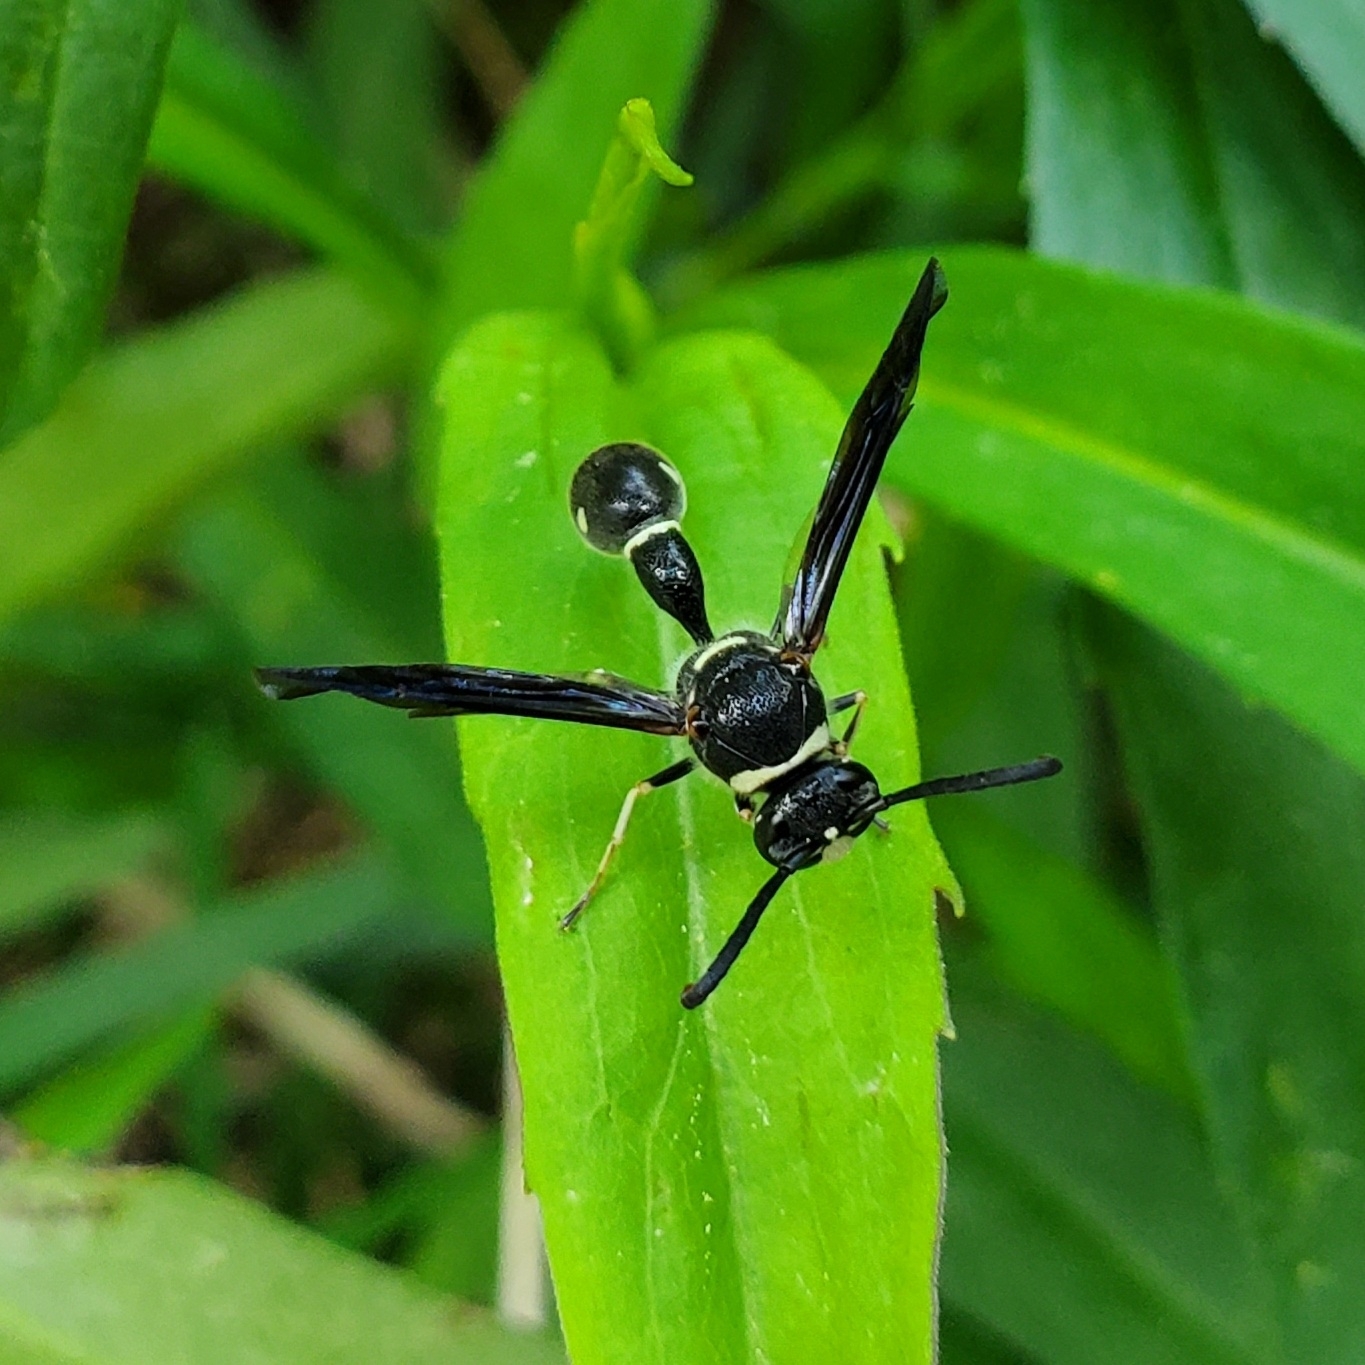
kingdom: Animalia
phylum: Arthropoda
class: Insecta
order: Hymenoptera
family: Vespidae
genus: Eumenes
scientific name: Eumenes fraternus
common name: Fraternal potter wasp
